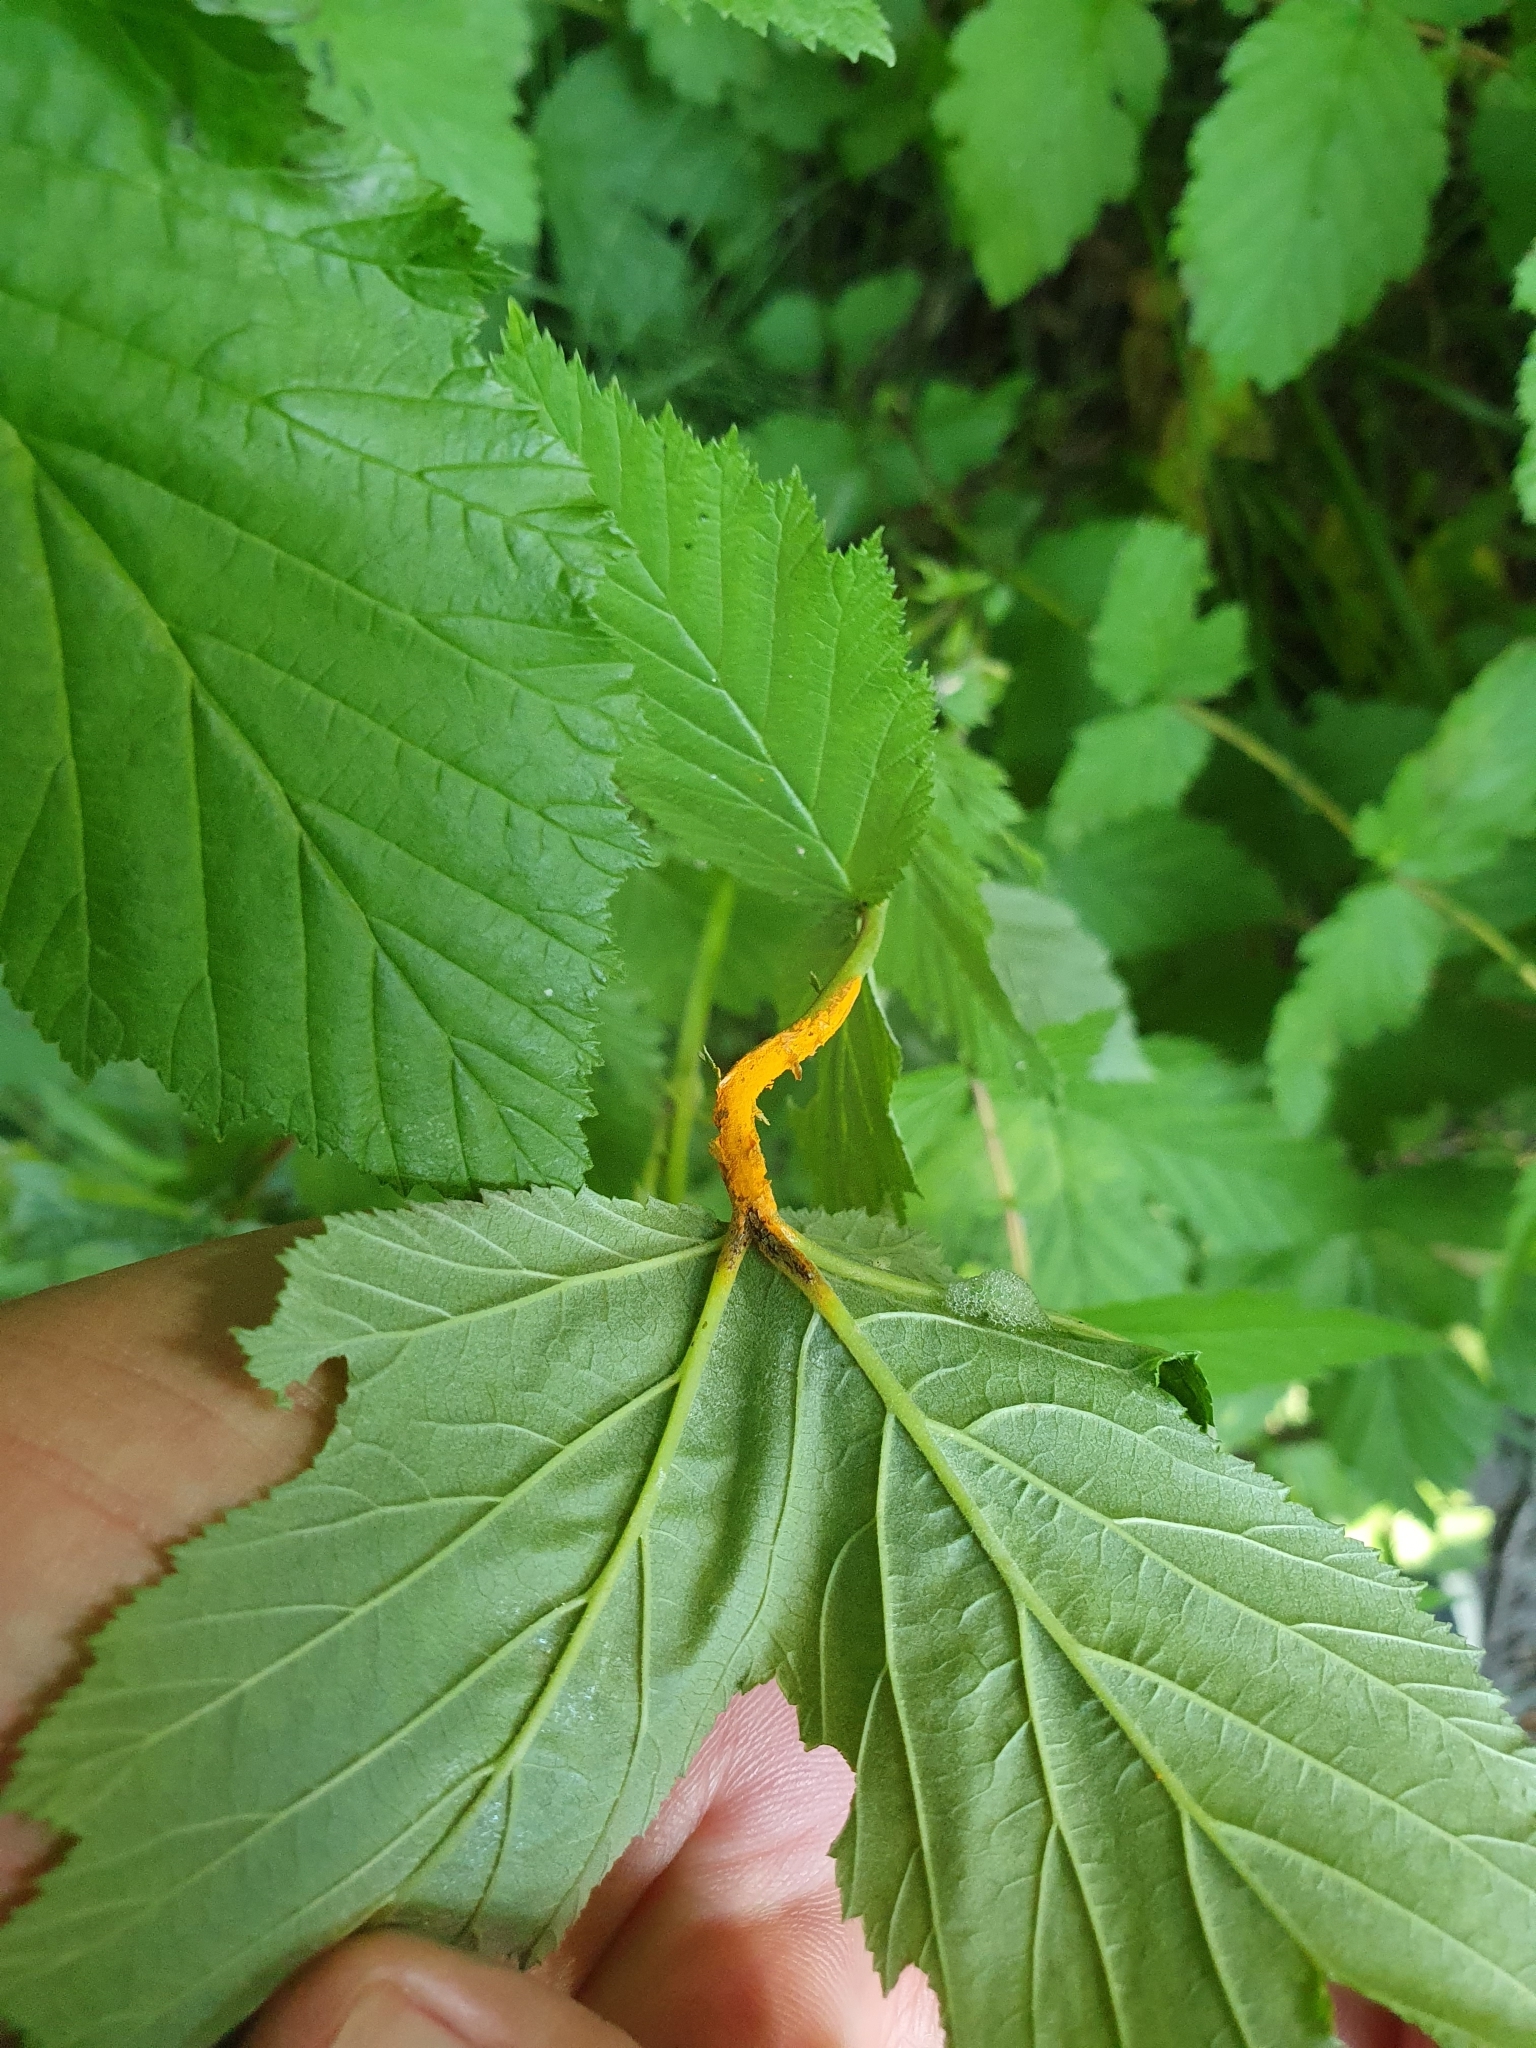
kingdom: Fungi
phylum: Basidiomycota
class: Pucciniomycetes
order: Pucciniales
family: Raveneliaceae
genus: Triphragmium
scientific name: Triphragmium ulmariae
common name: Meadowsweet rust
